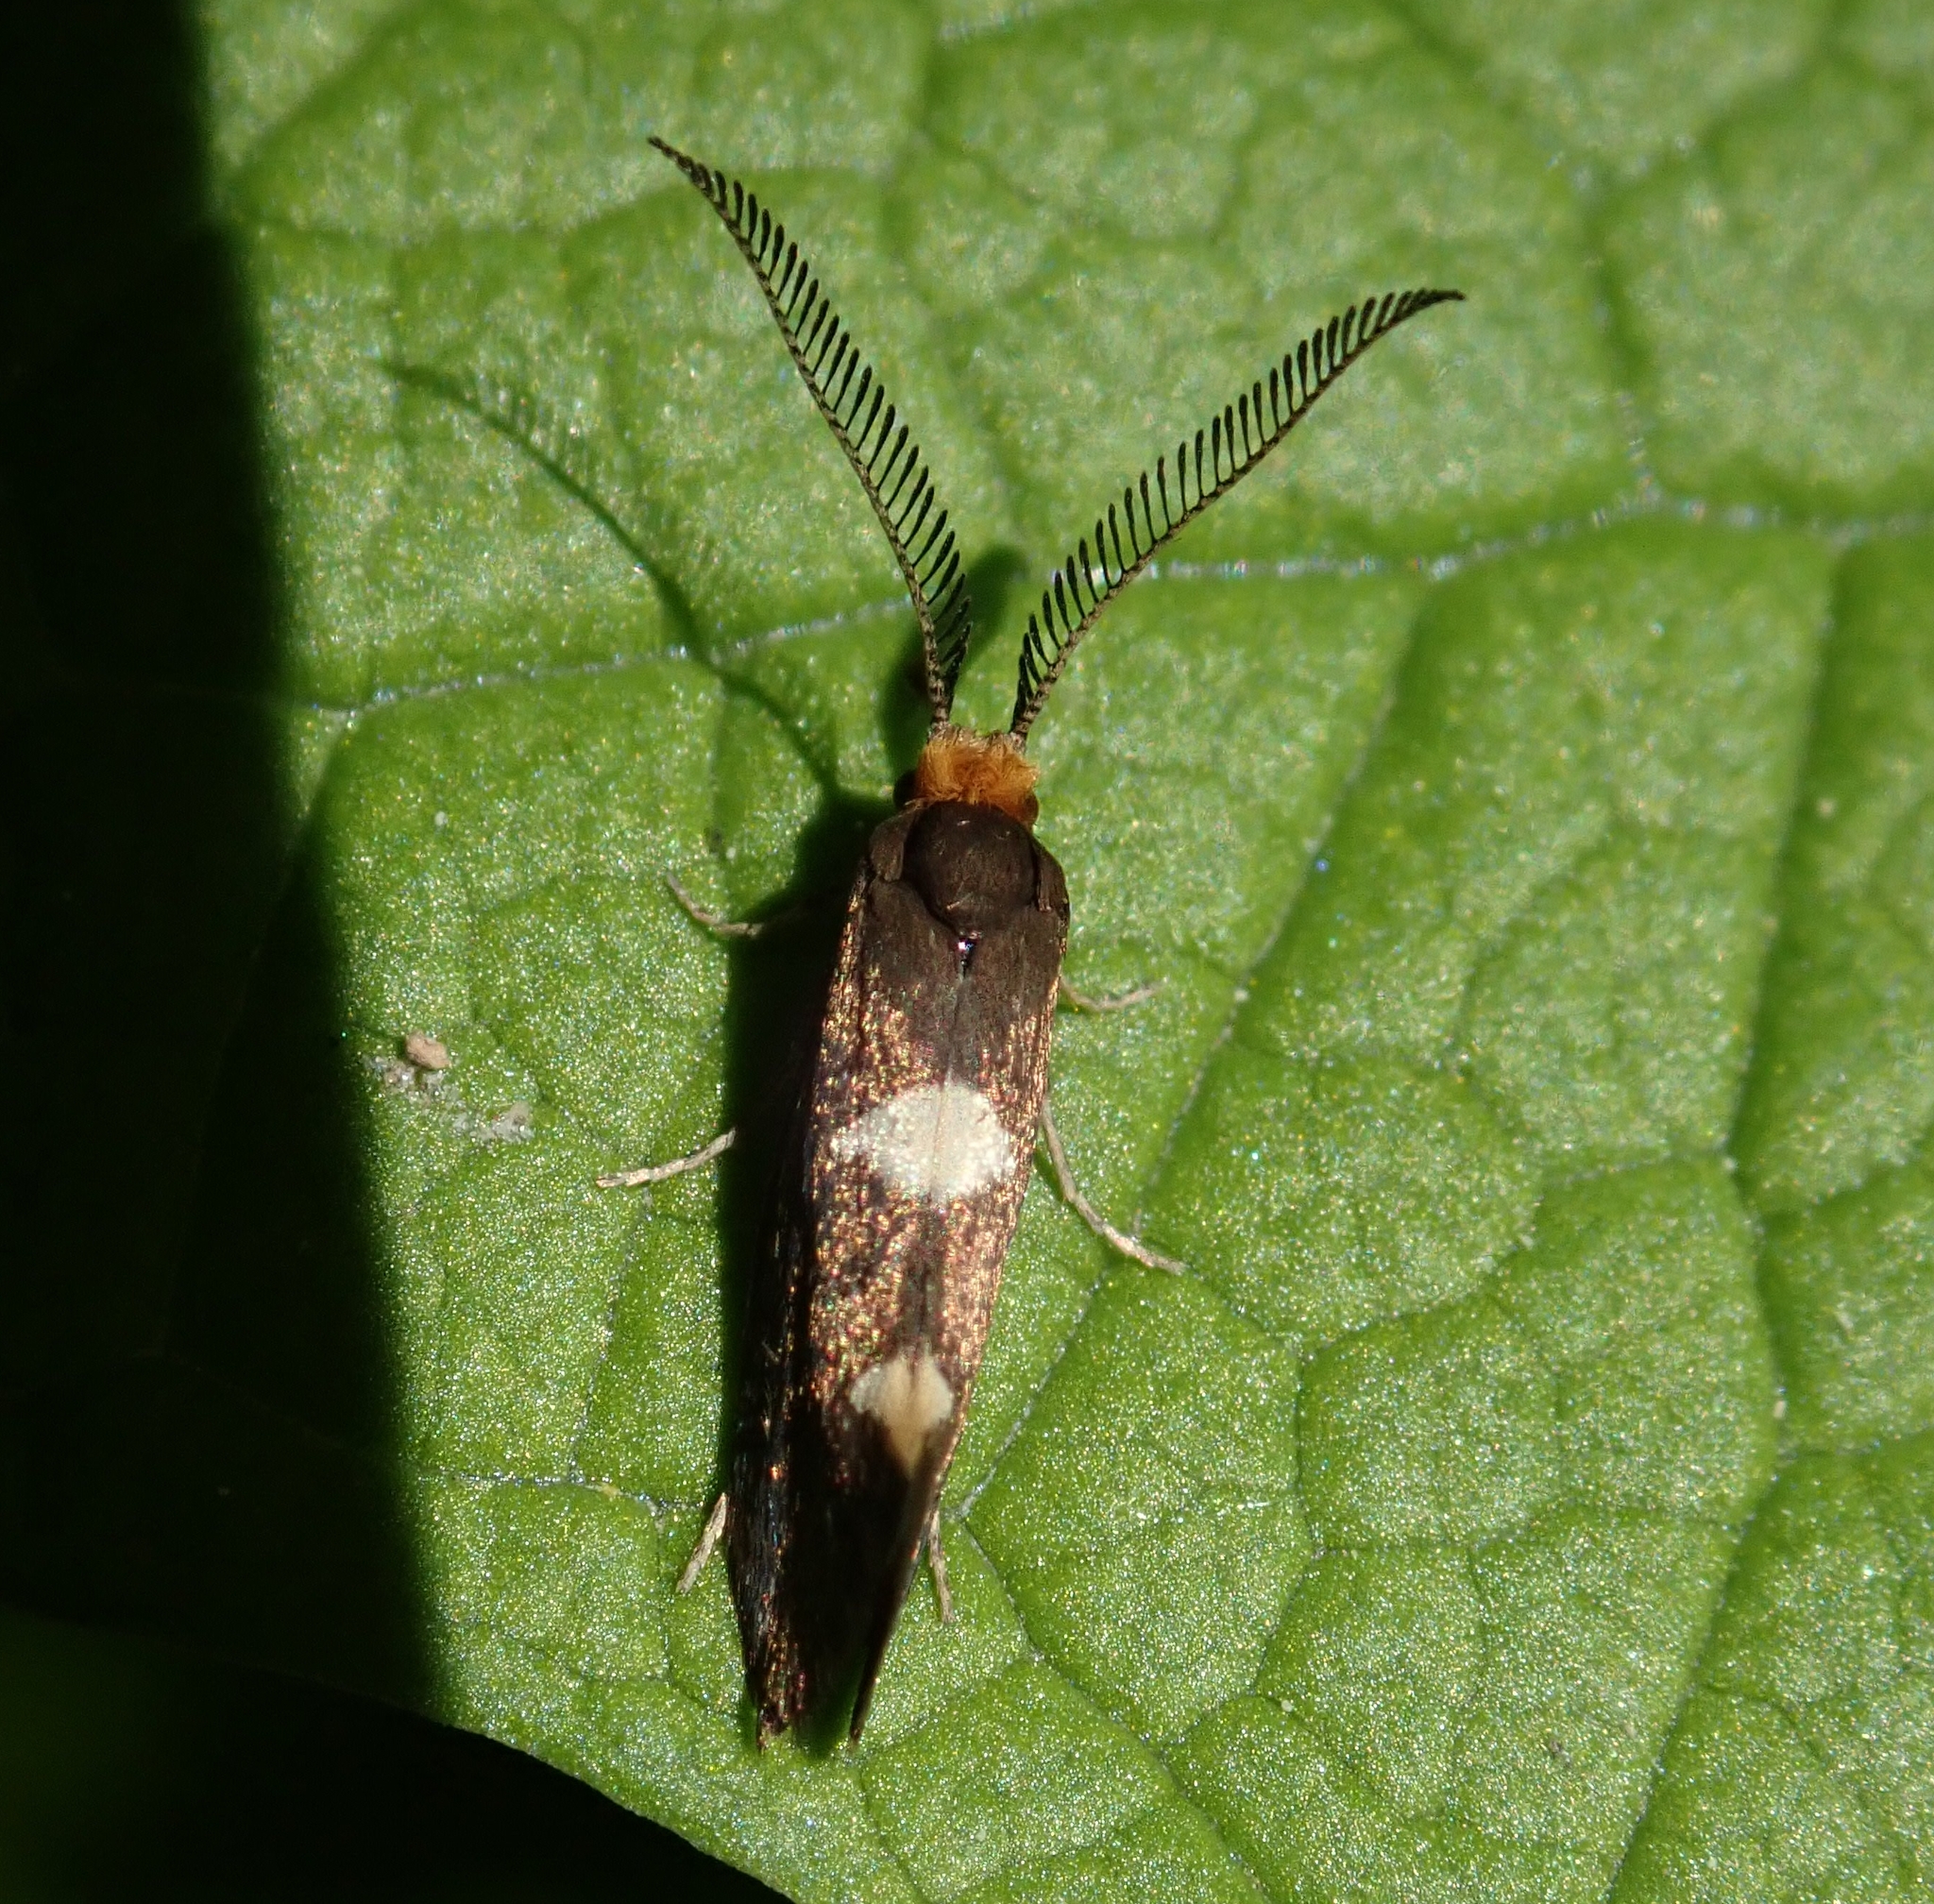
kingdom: Animalia
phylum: Arthropoda
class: Insecta
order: Lepidoptera
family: Incurvariidae
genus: Incurvaria
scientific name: Incurvaria masculella
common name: Feathered leaf-cutter
